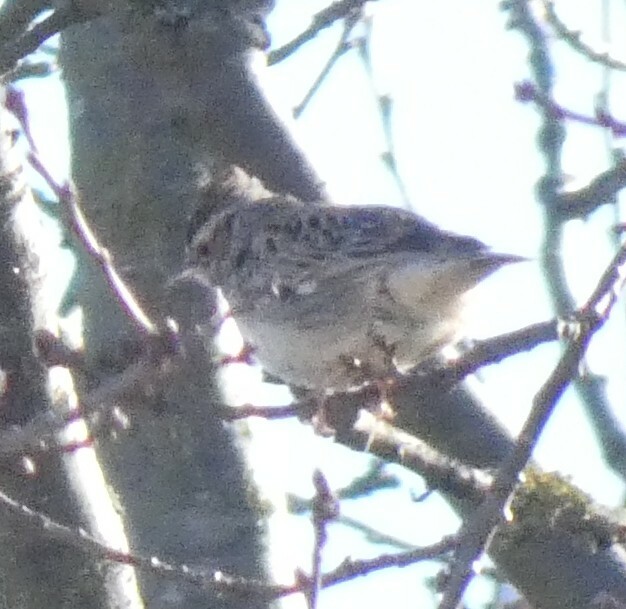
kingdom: Animalia
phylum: Chordata
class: Aves
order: Passeriformes
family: Alaudidae
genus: Lullula
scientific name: Lullula arborea
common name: Woodlark
